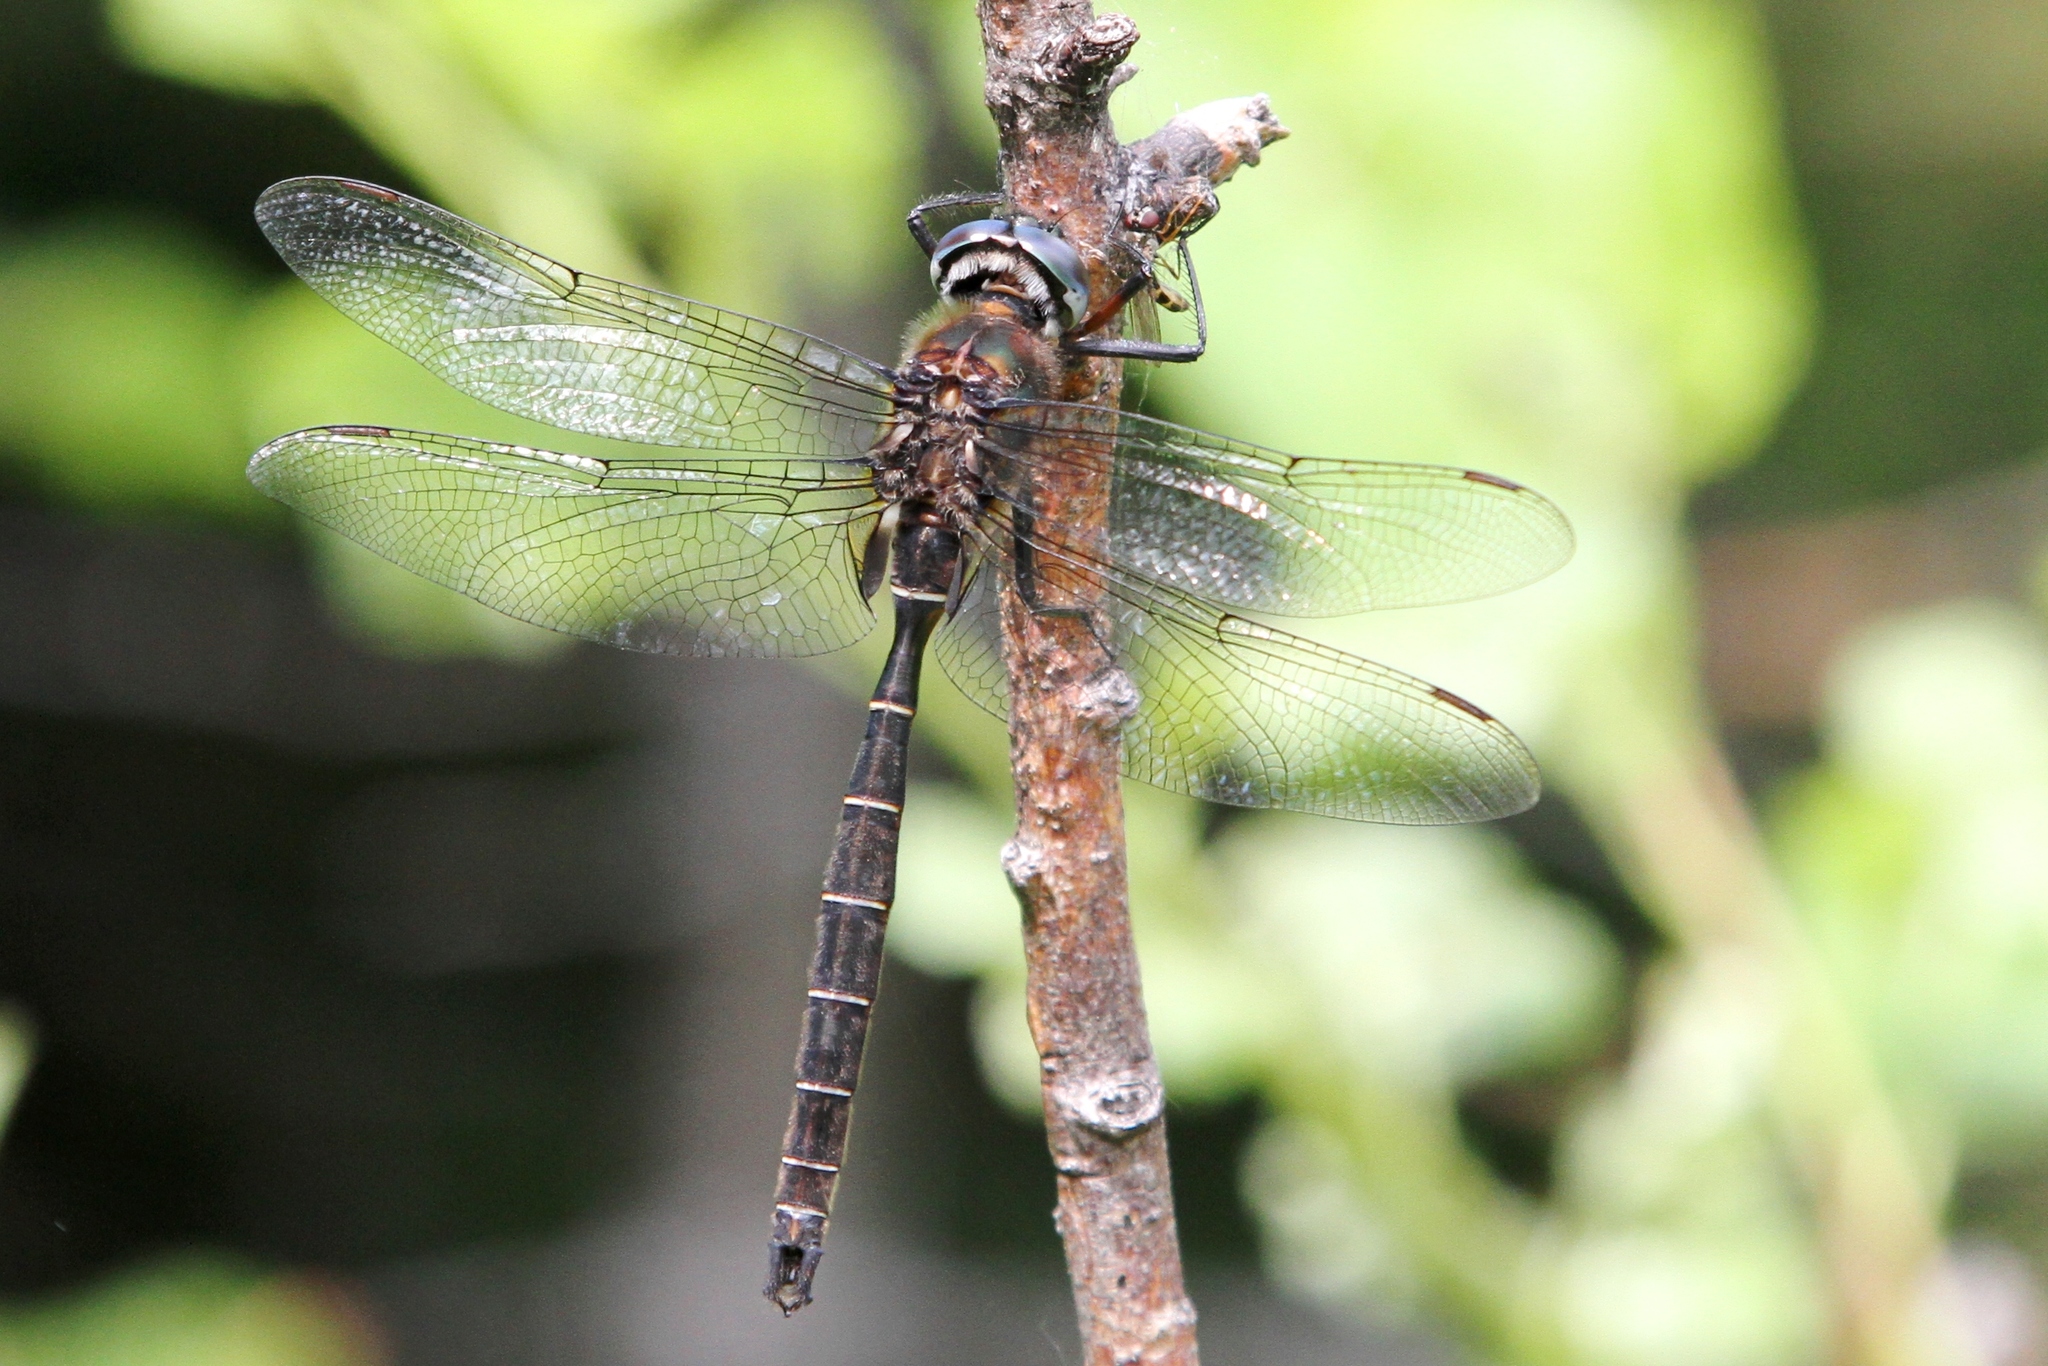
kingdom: Animalia
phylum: Arthropoda
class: Insecta
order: Odonata
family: Corduliidae
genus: Somatochlora
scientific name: Somatochlora cingulata
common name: Lake emerald
